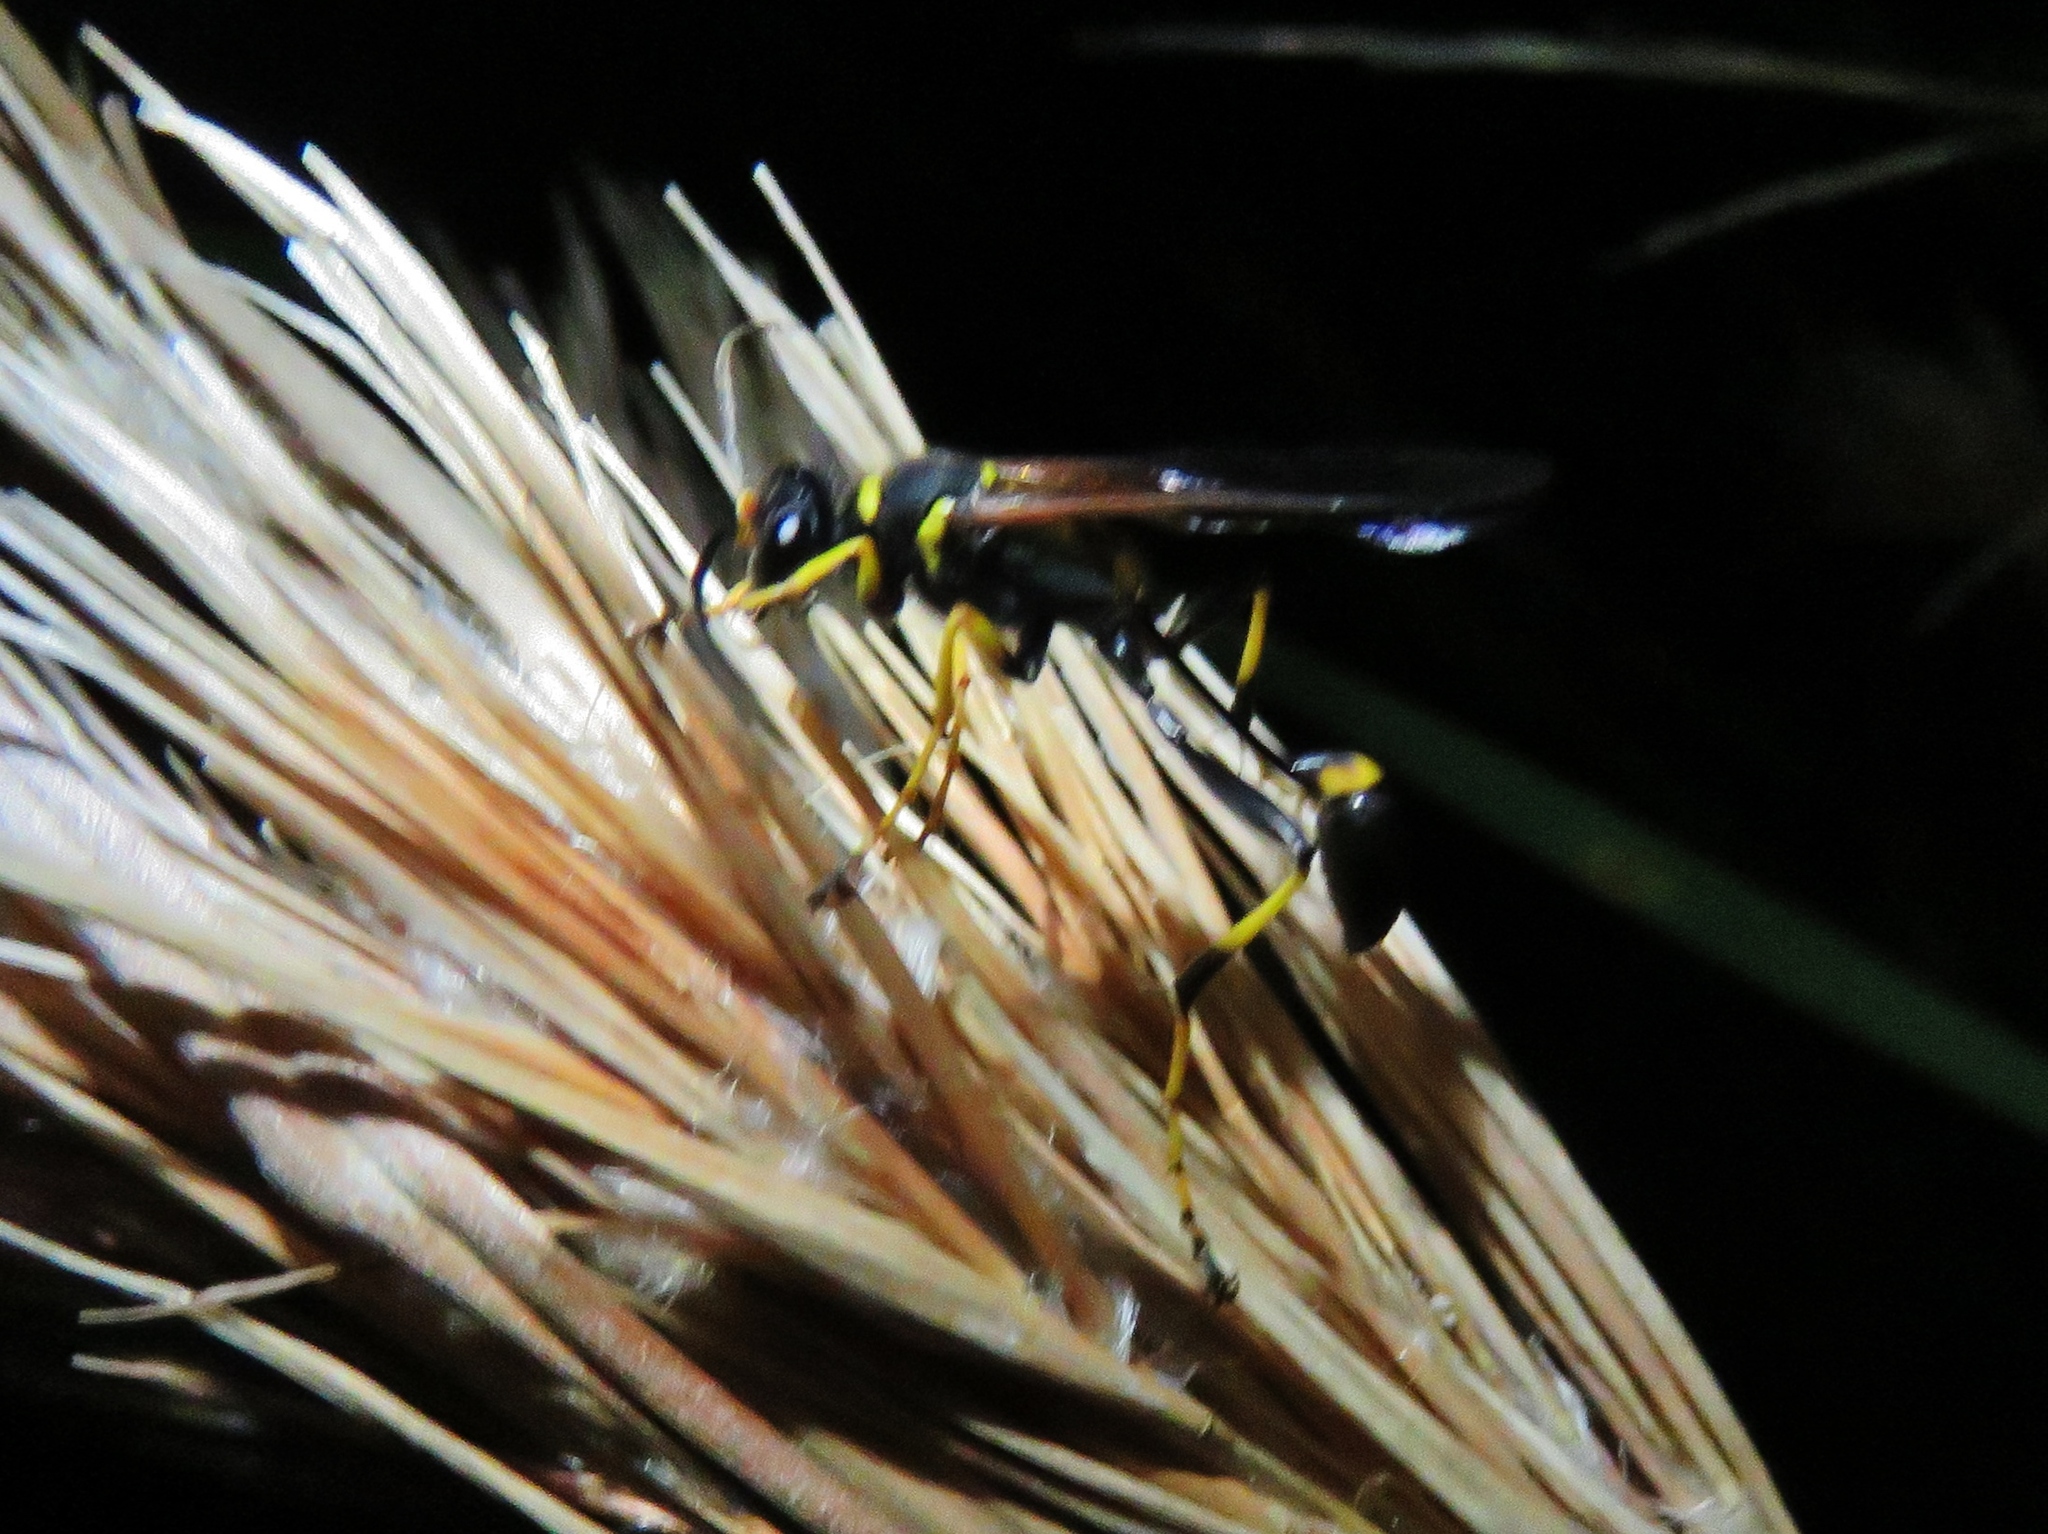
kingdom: Animalia
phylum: Arthropoda
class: Insecta
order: Hymenoptera
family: Sphecidae
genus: Sceliphron
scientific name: Sceliphron caementarium
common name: Mud dauber
